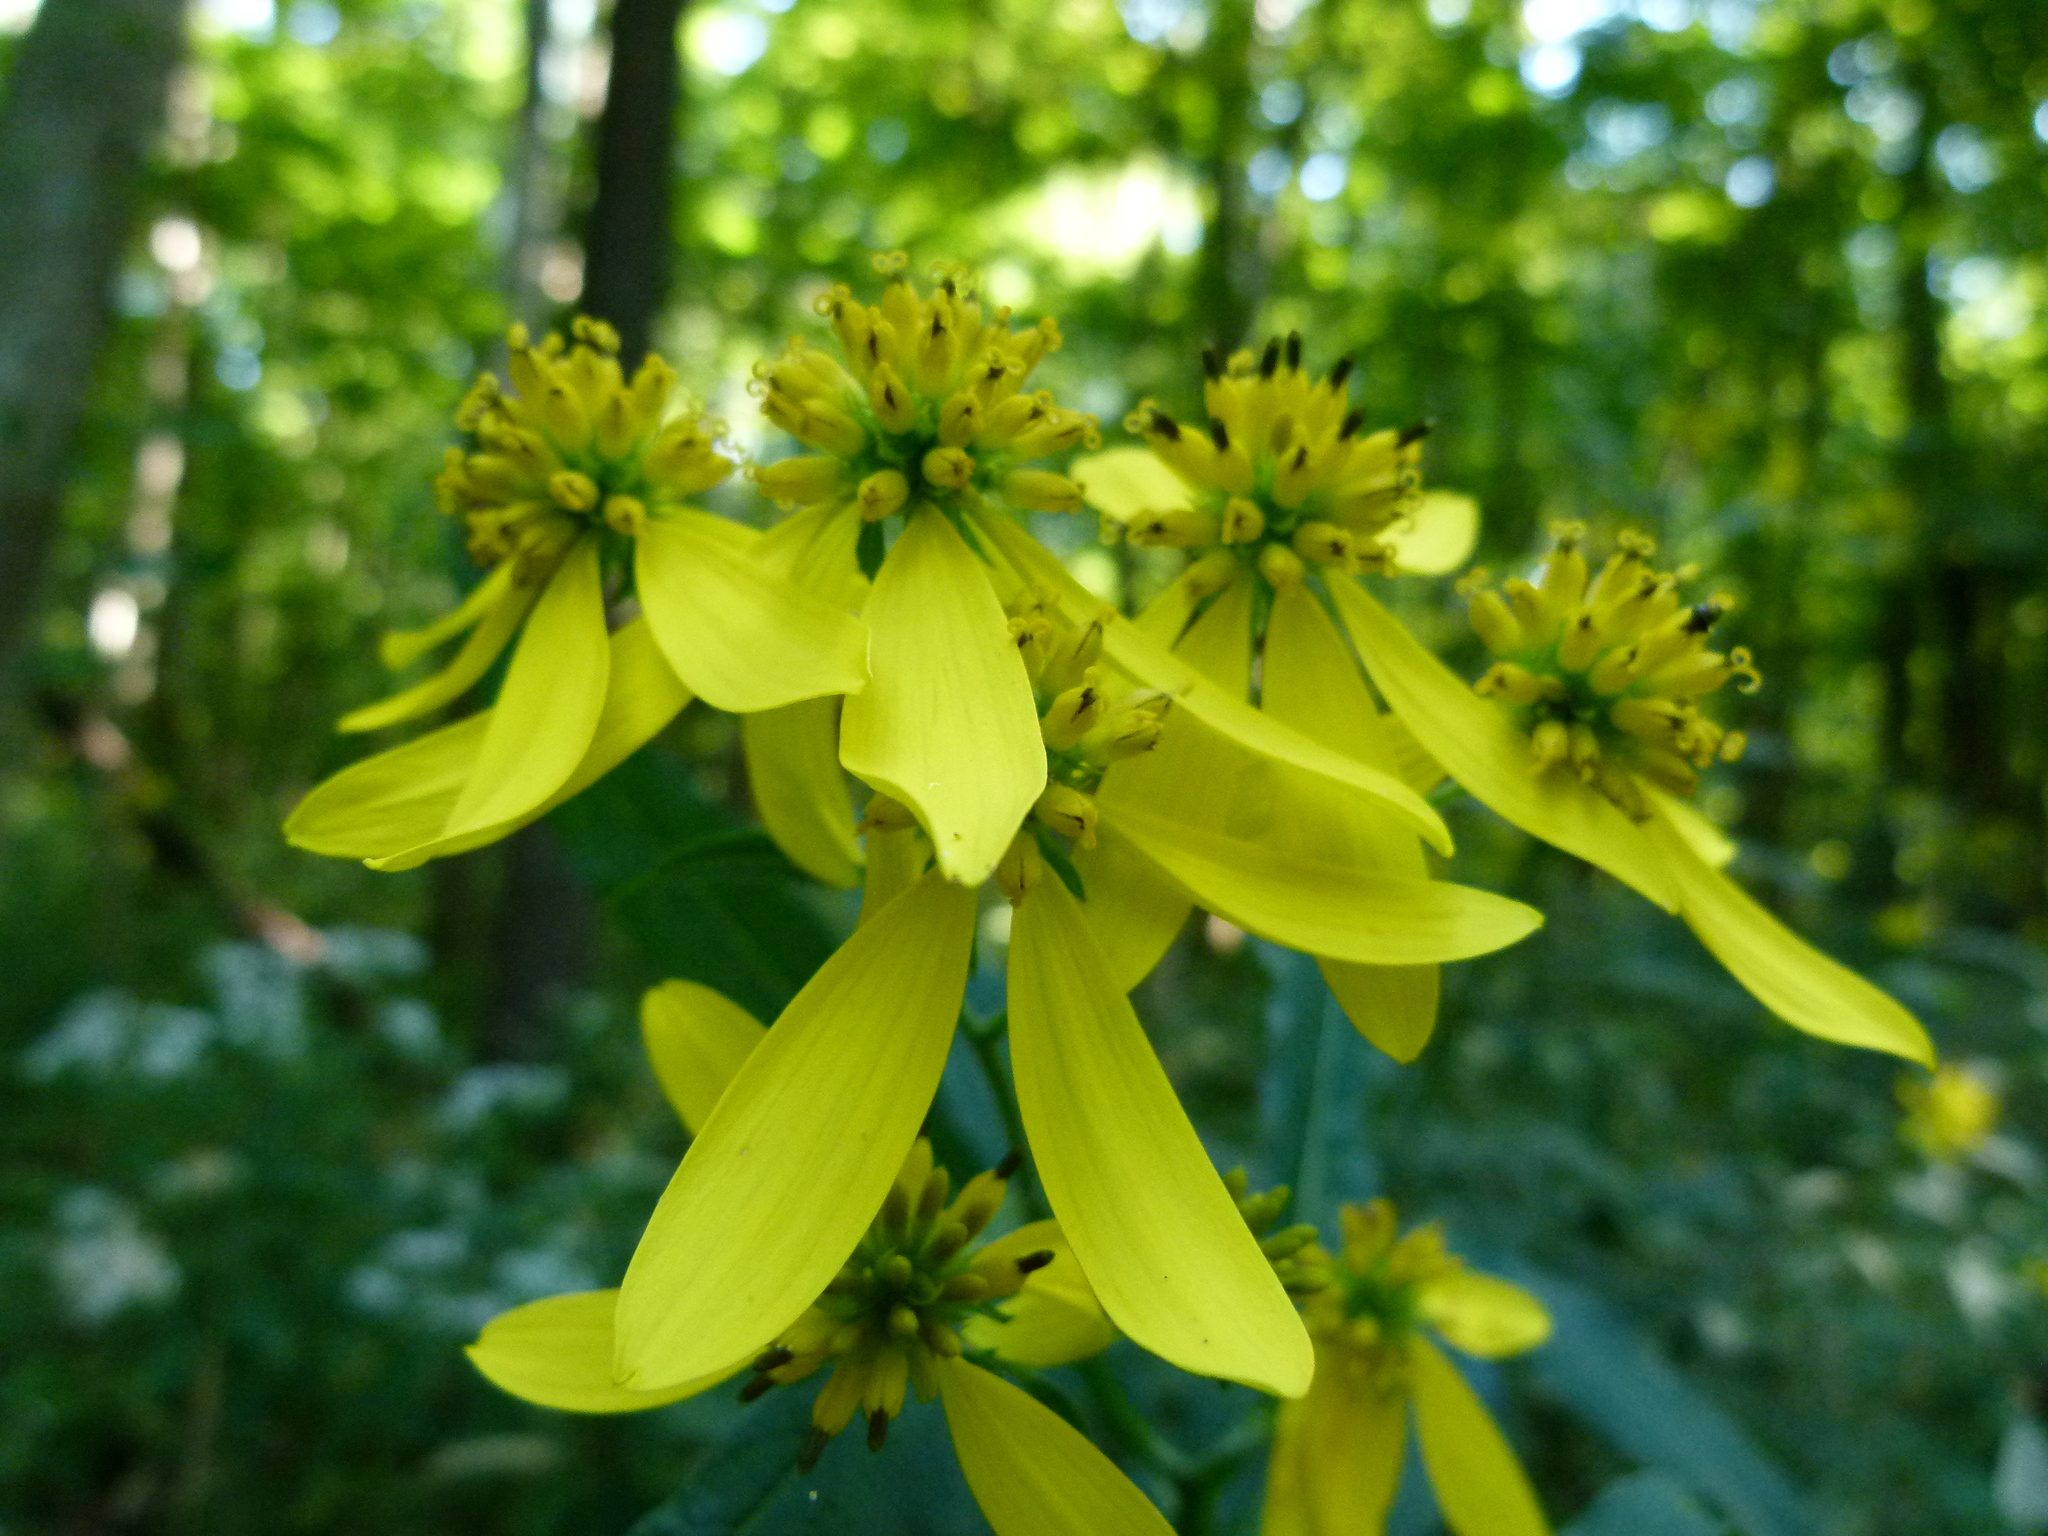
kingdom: Plantae
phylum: Tracheophyta
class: Magnoliopsida
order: Asterales
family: Asteraceae
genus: Verbesina
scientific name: Verbesina alternifolia
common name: Wingstem
